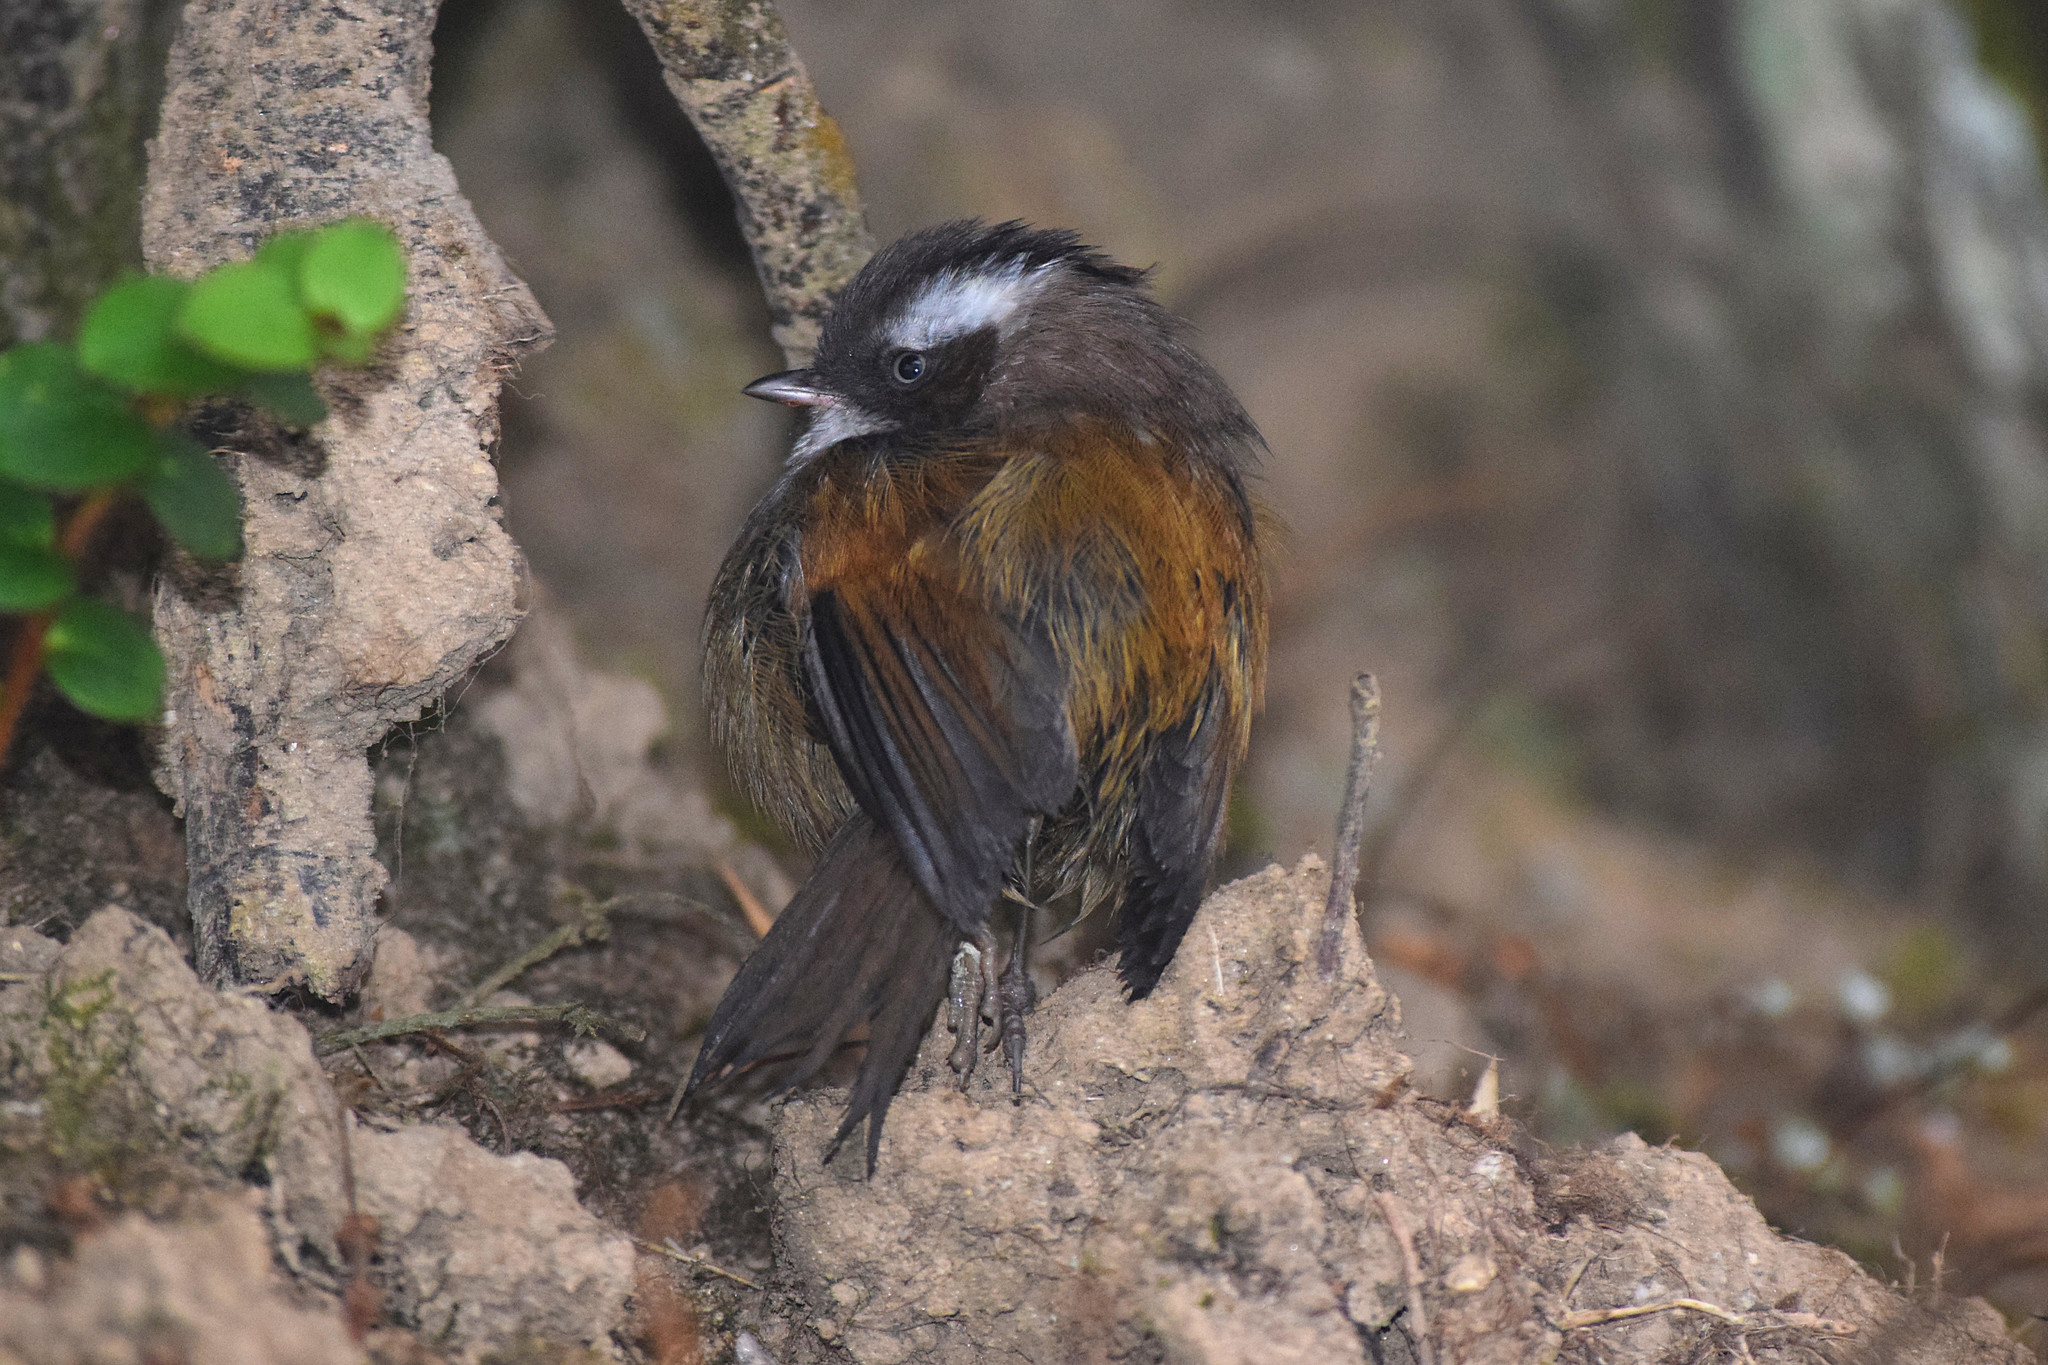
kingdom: Animalia
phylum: Chordata
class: Aves
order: Passeriformes
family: Sylviidae
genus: Fulvetta
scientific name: Fulvetta vinipectus
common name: White-browed fulvetta
